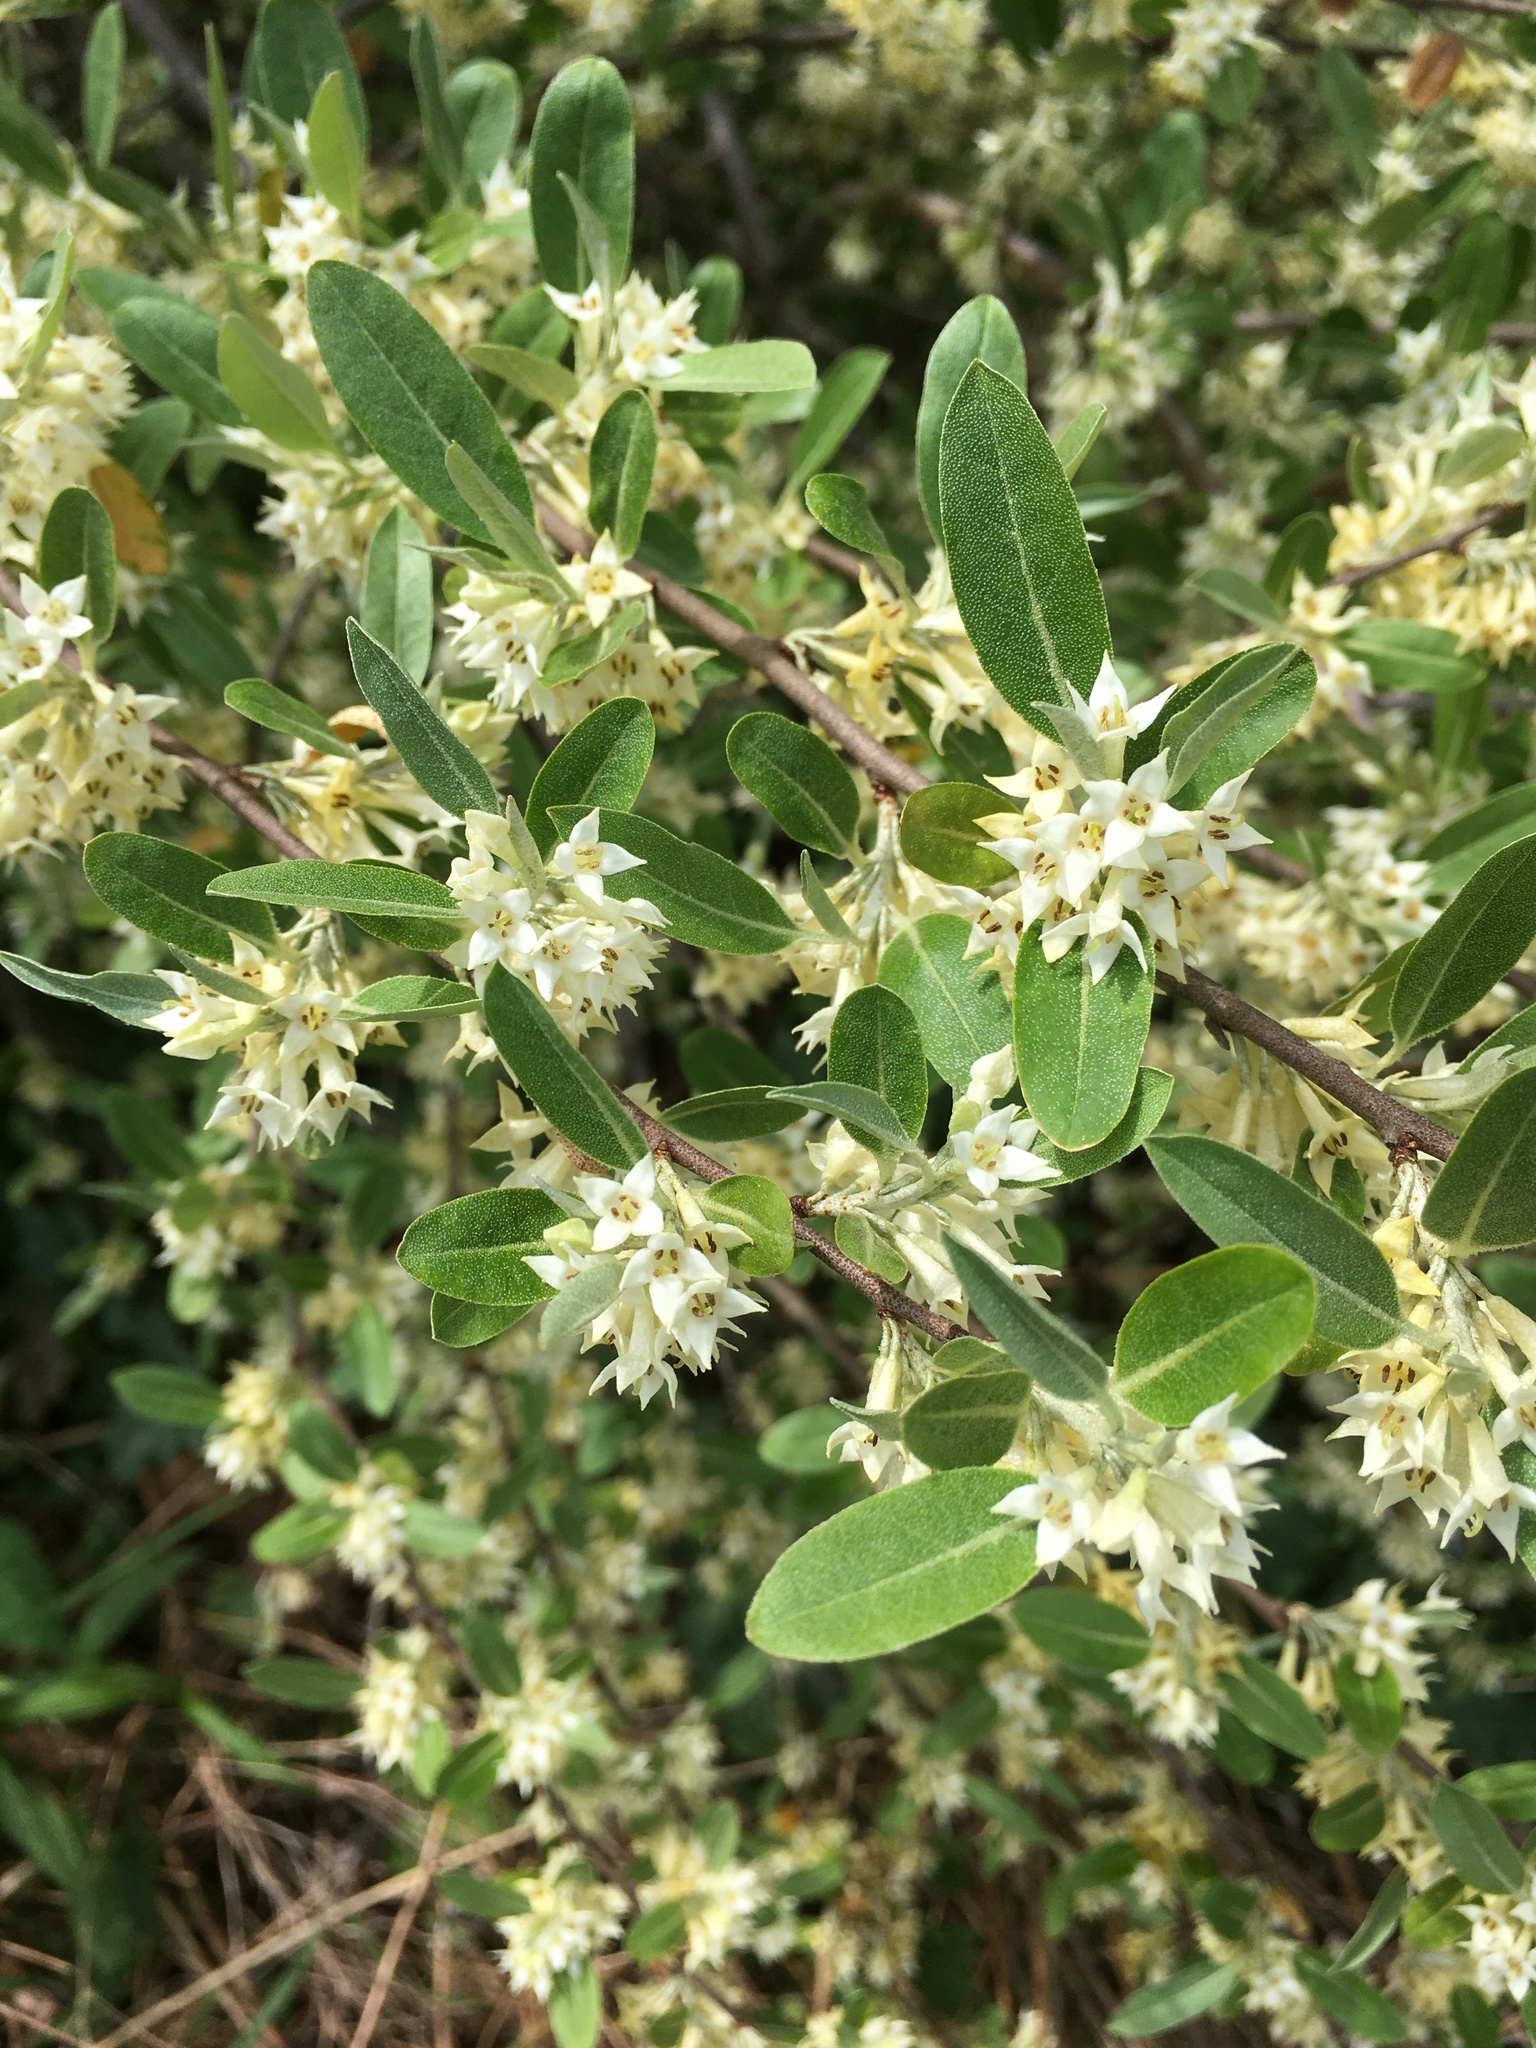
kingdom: Plantae
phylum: Tracheophyta
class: Magnoliopsida
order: Rosales
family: Elaeagnaceae
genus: Elaeagnus
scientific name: Elaeagnus umbellata
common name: Autumn olive
